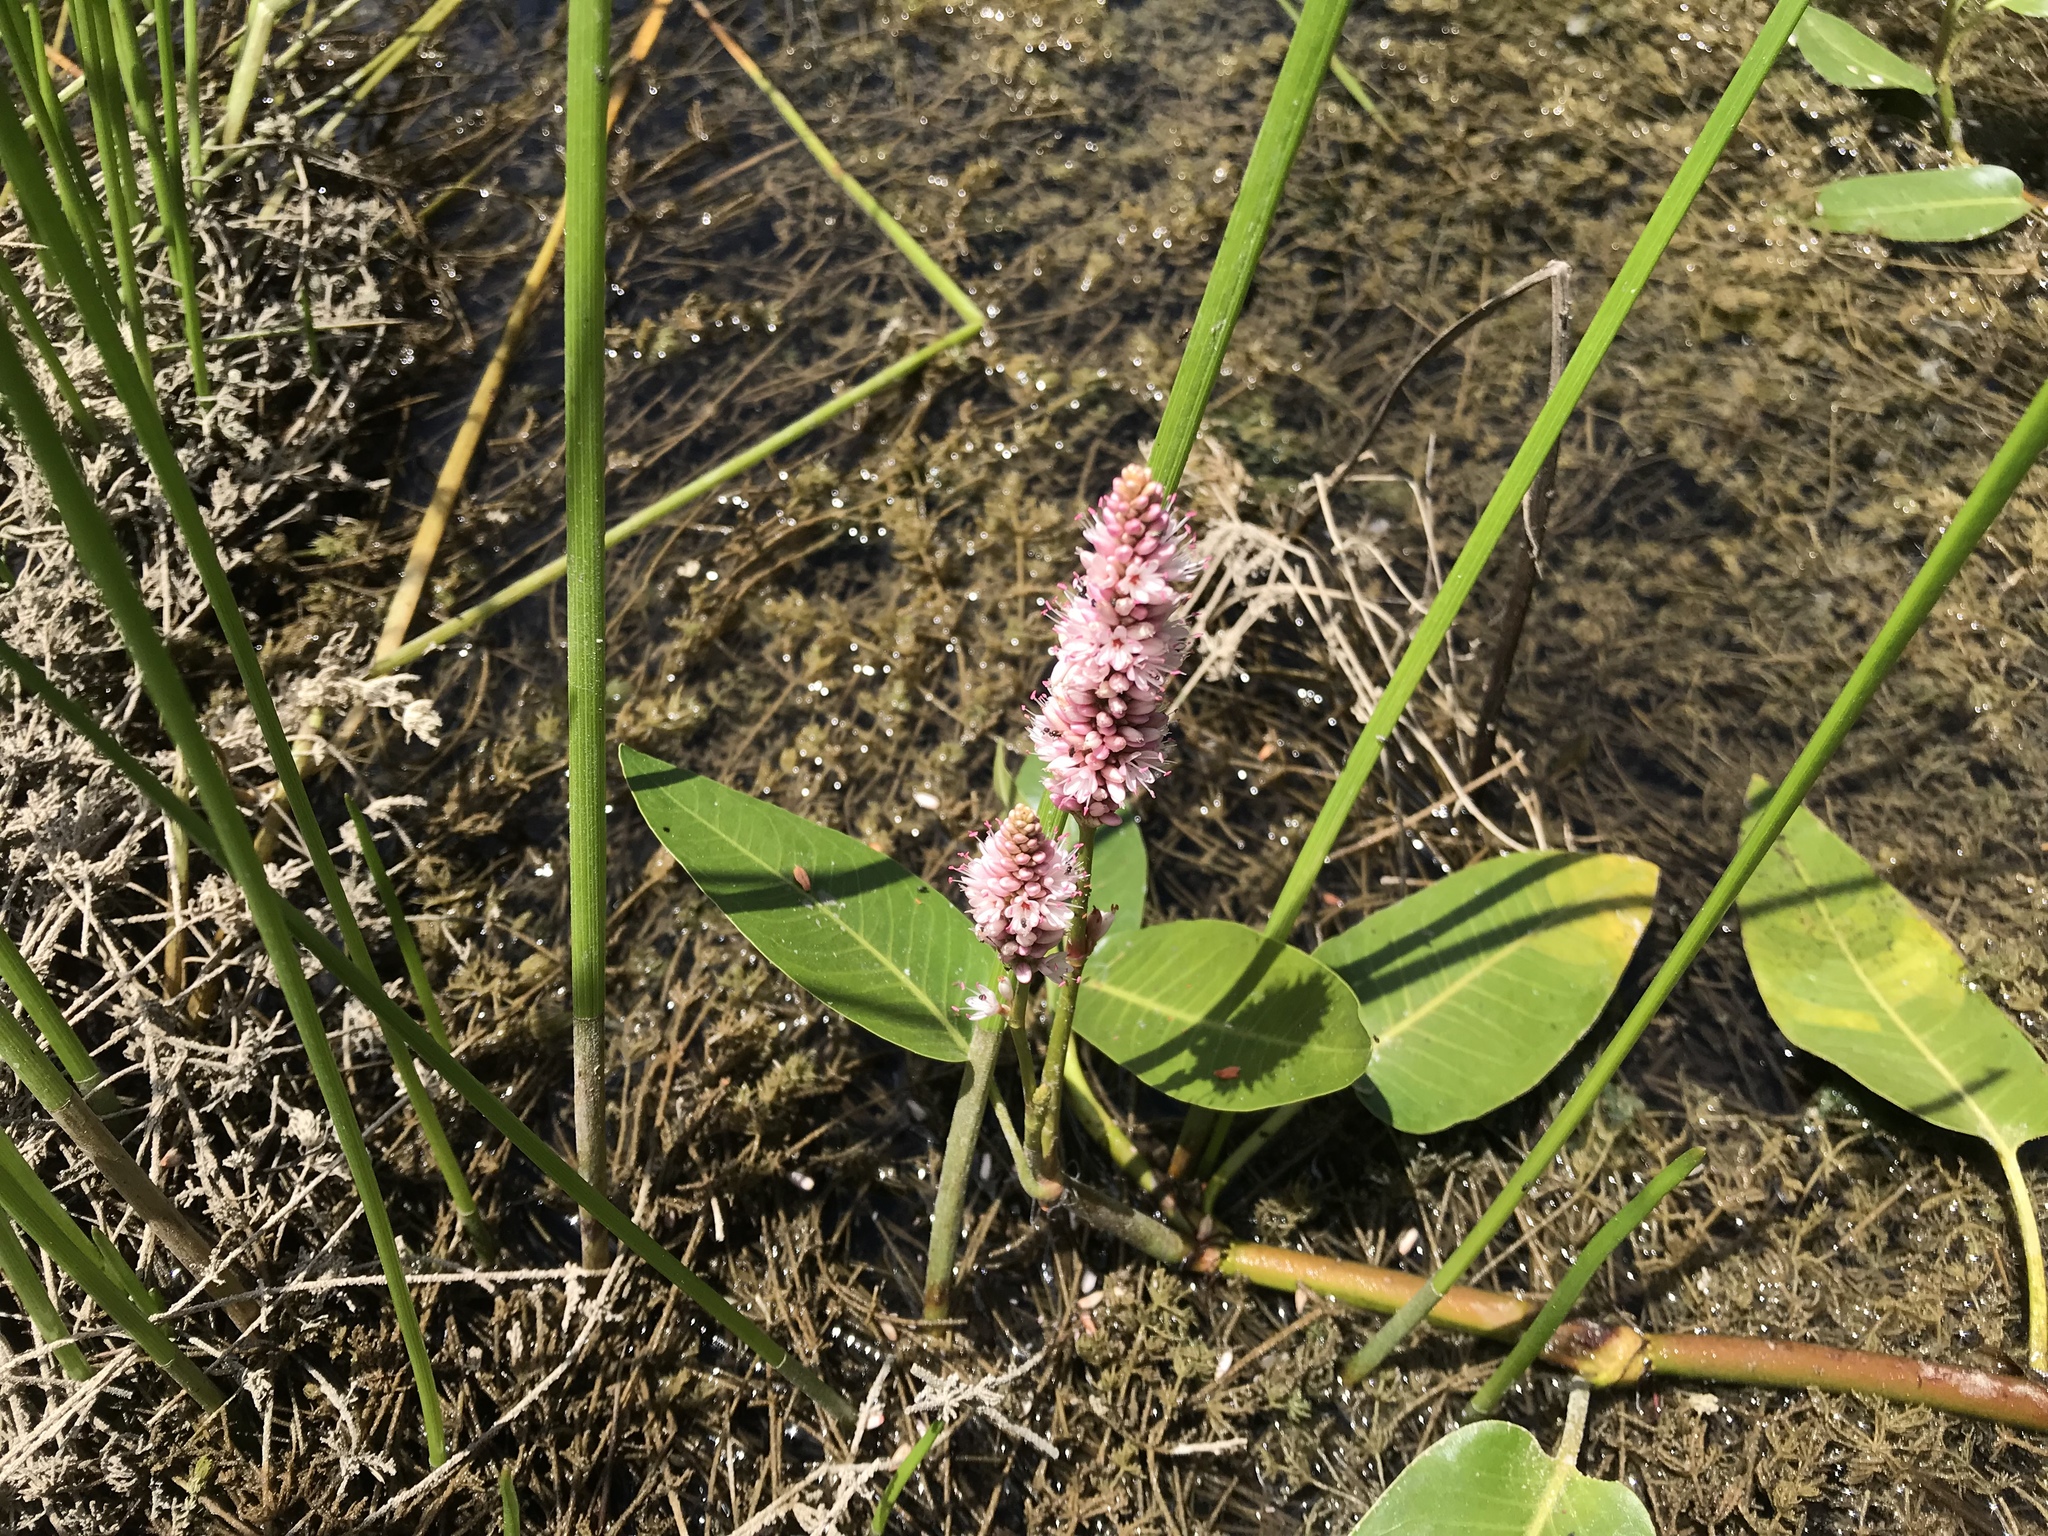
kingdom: Plantae
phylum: Tracheophyta
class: Magnoliopsida
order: Caryophyllales
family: Polygonaceae
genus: Persicaria
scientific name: Persicaria amphibia
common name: Amphibious bistort
